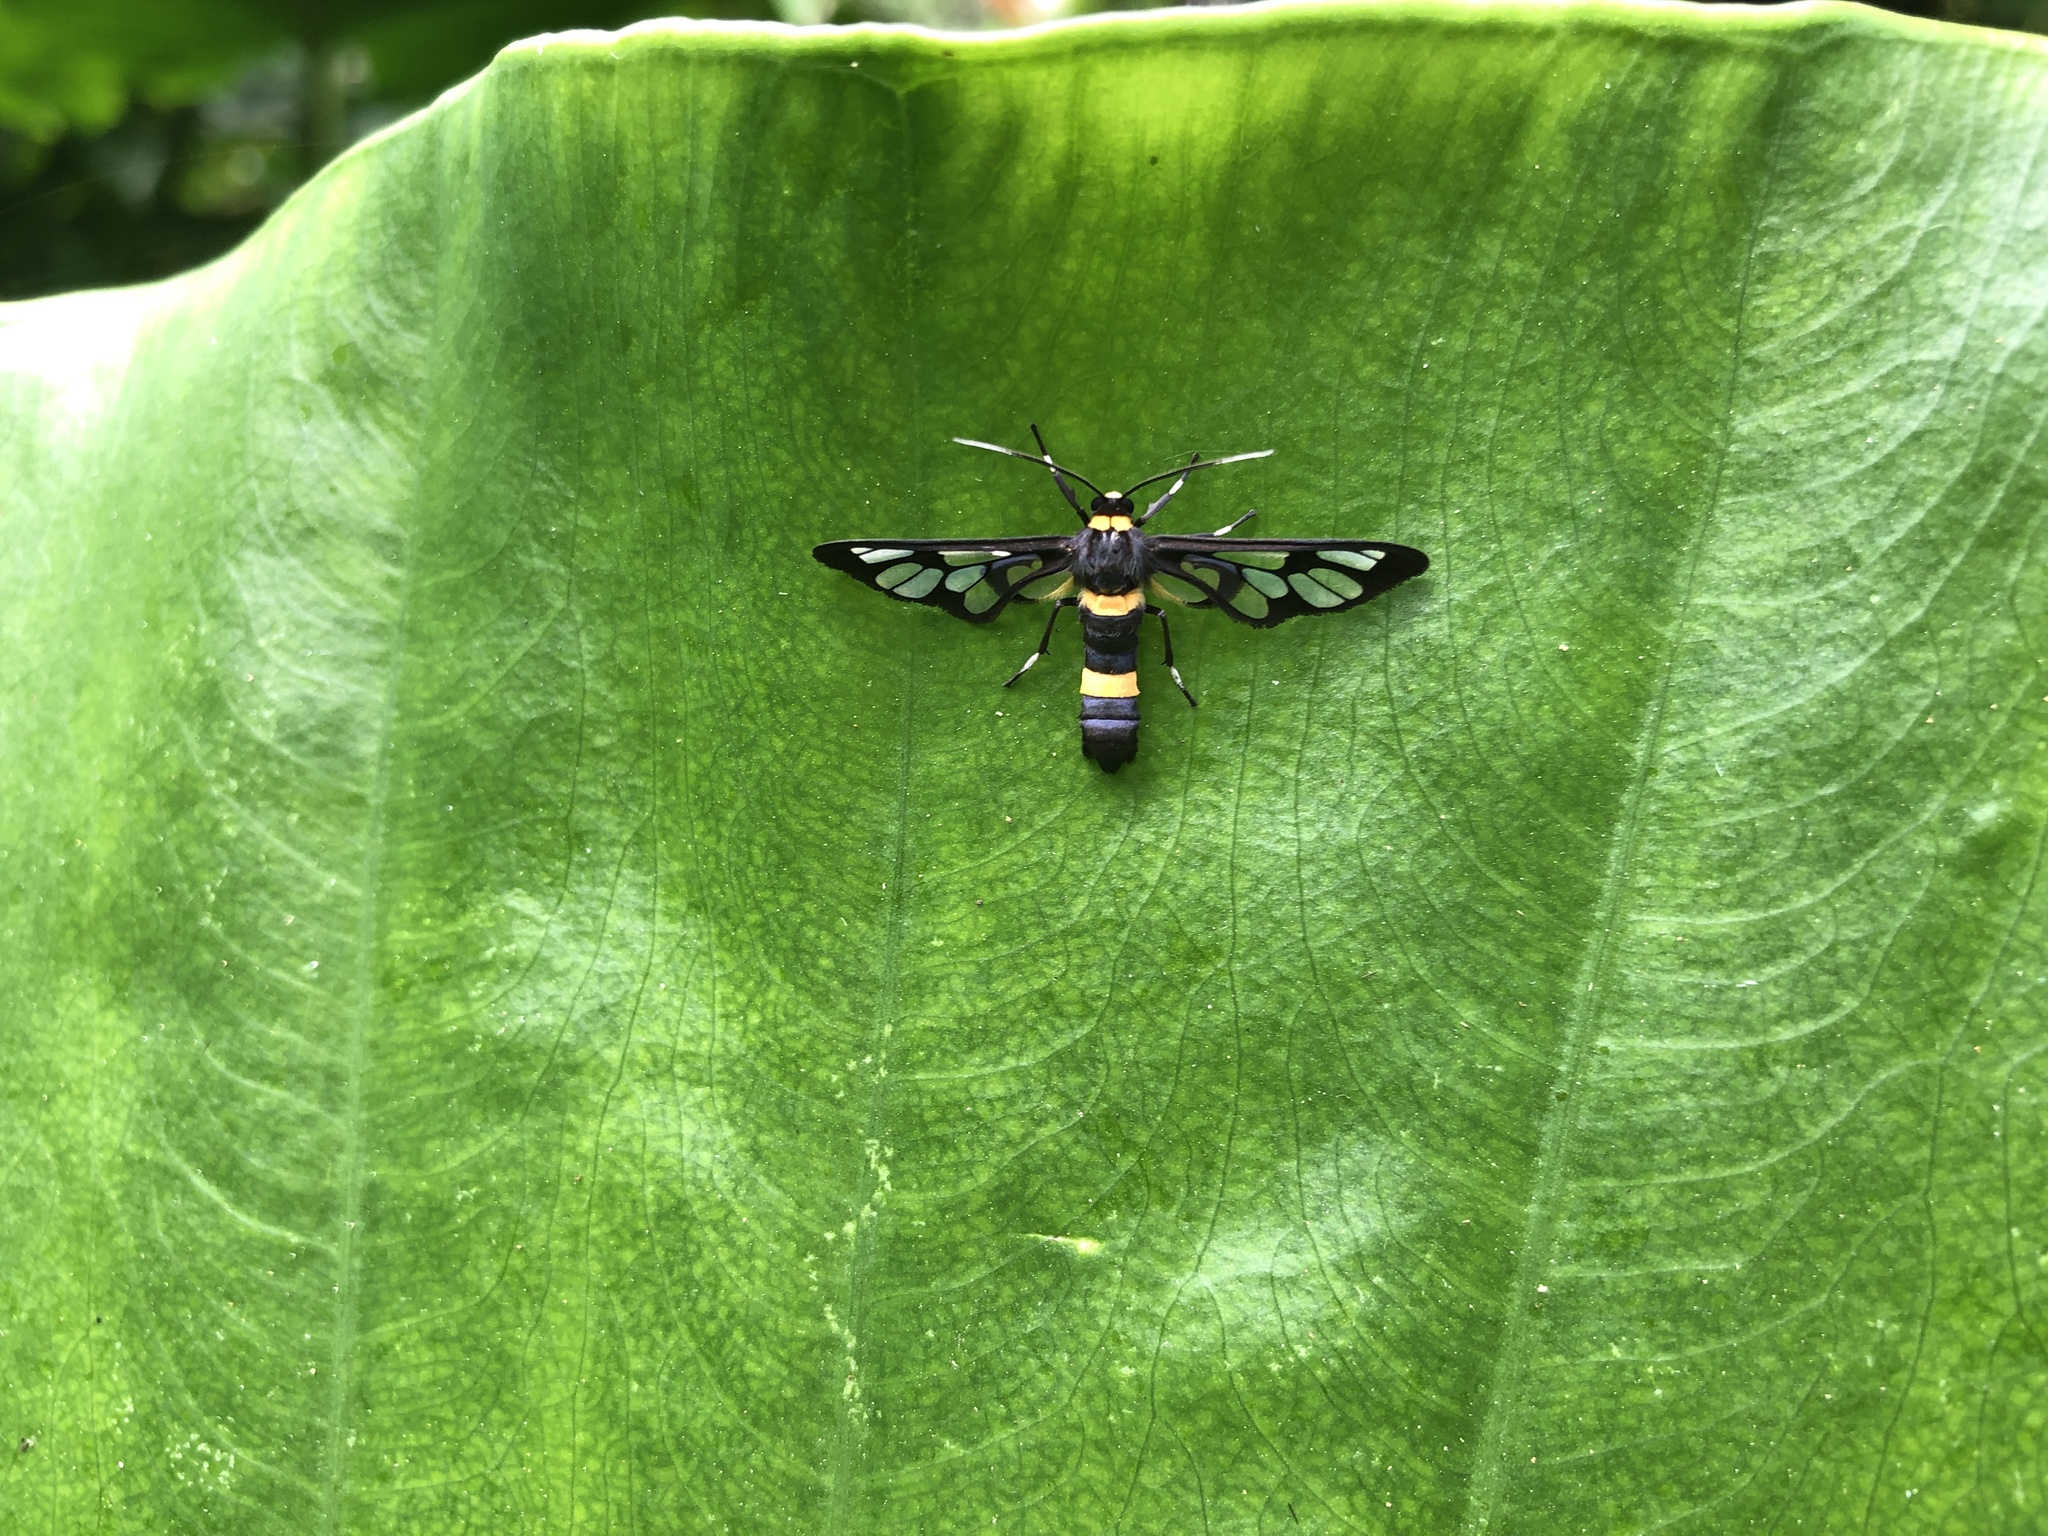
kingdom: Animalia
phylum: Arthropoda
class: Insecta
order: Lepidoptera
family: Erebidae
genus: Syntomoides
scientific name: Syntomoides imaon
